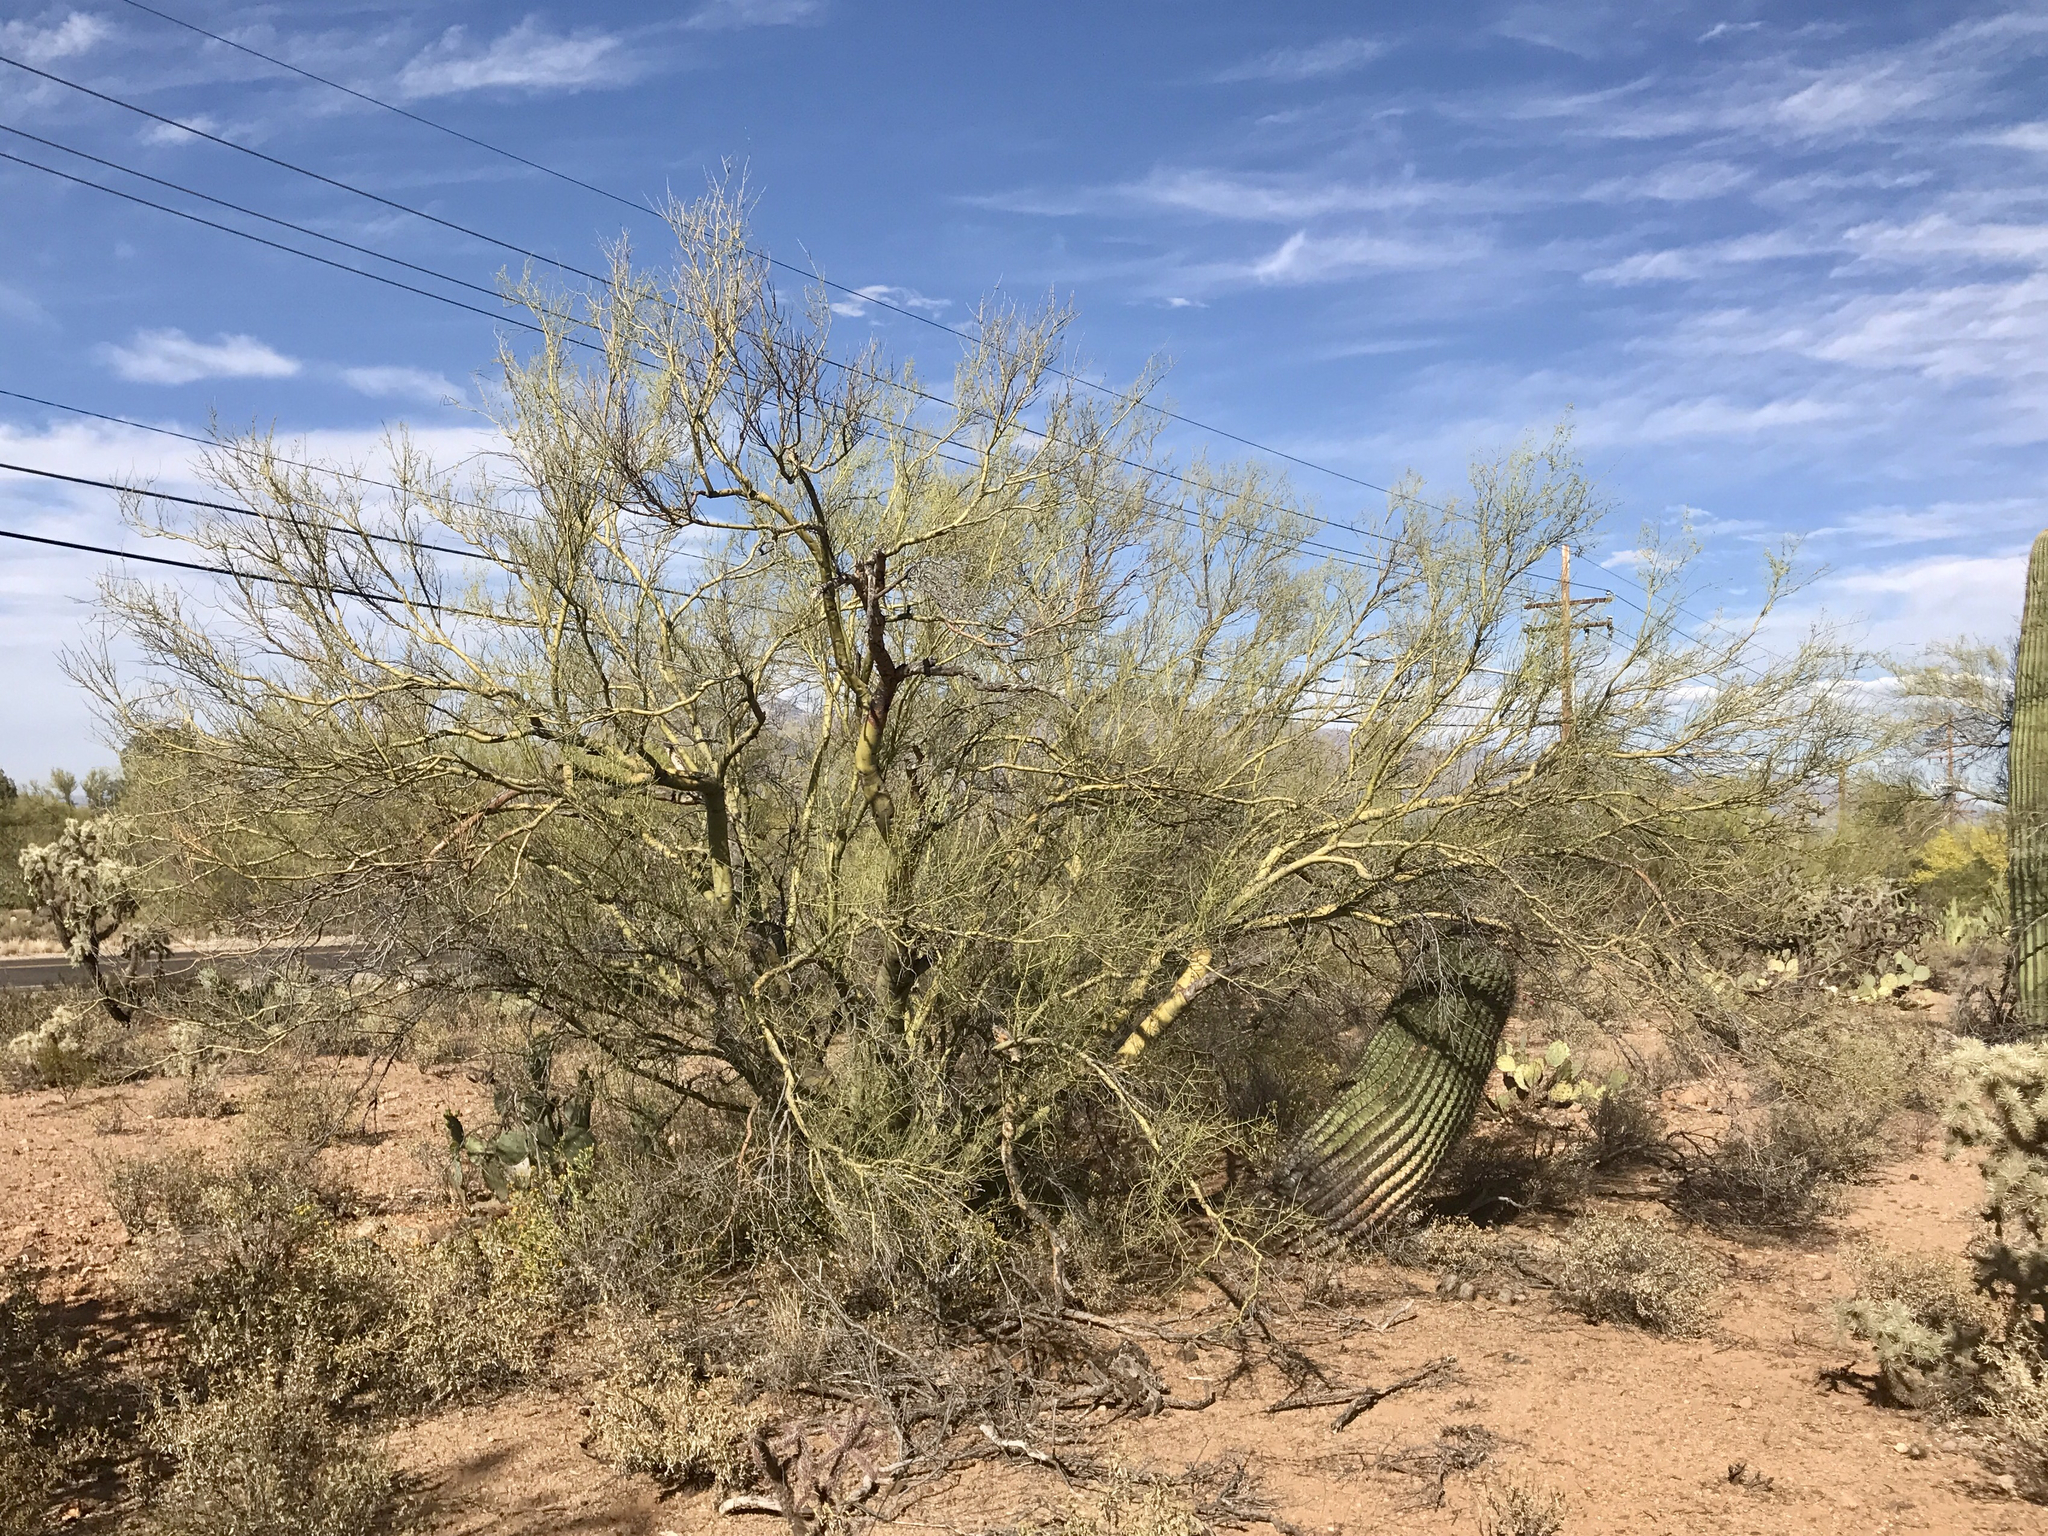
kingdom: Plantae
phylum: Tracheophyta
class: Magnoliopsida
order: Caryophyllales
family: Cactaceae
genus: Ferocactus
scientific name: Ferocactus wislizeni
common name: Candy barrel cactus
